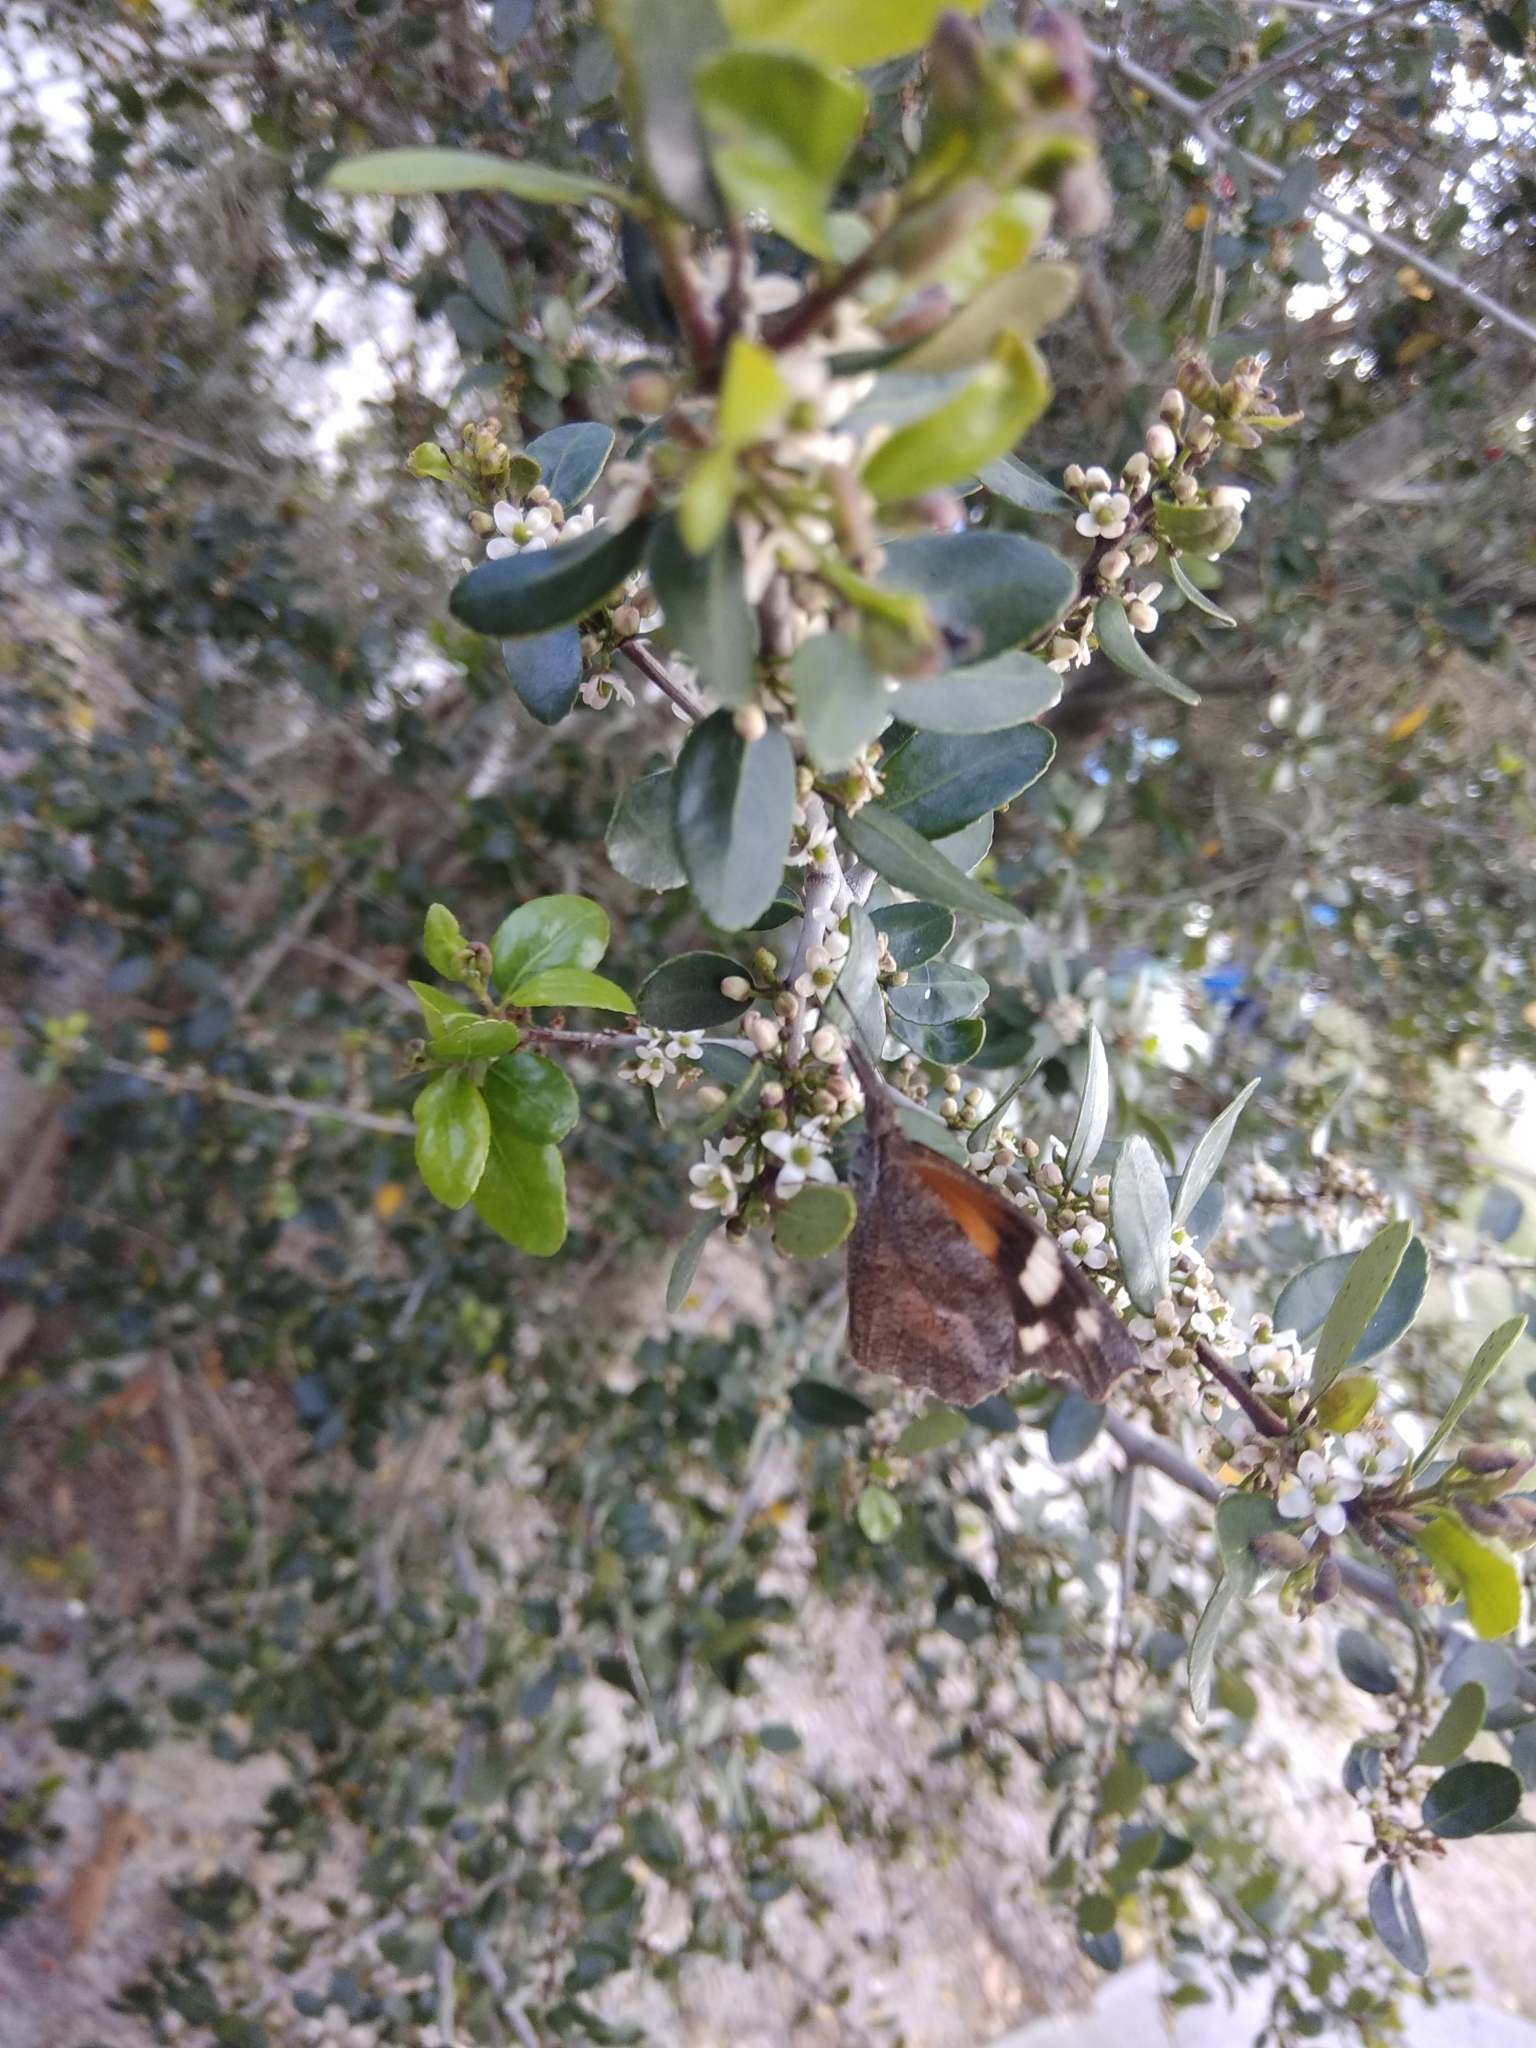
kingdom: Animalia
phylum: Arthropoda
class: Insecta
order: Lepidoptera
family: Nymphalidae
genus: Libytheana
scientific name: Libytheana carinenta
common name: American snout
